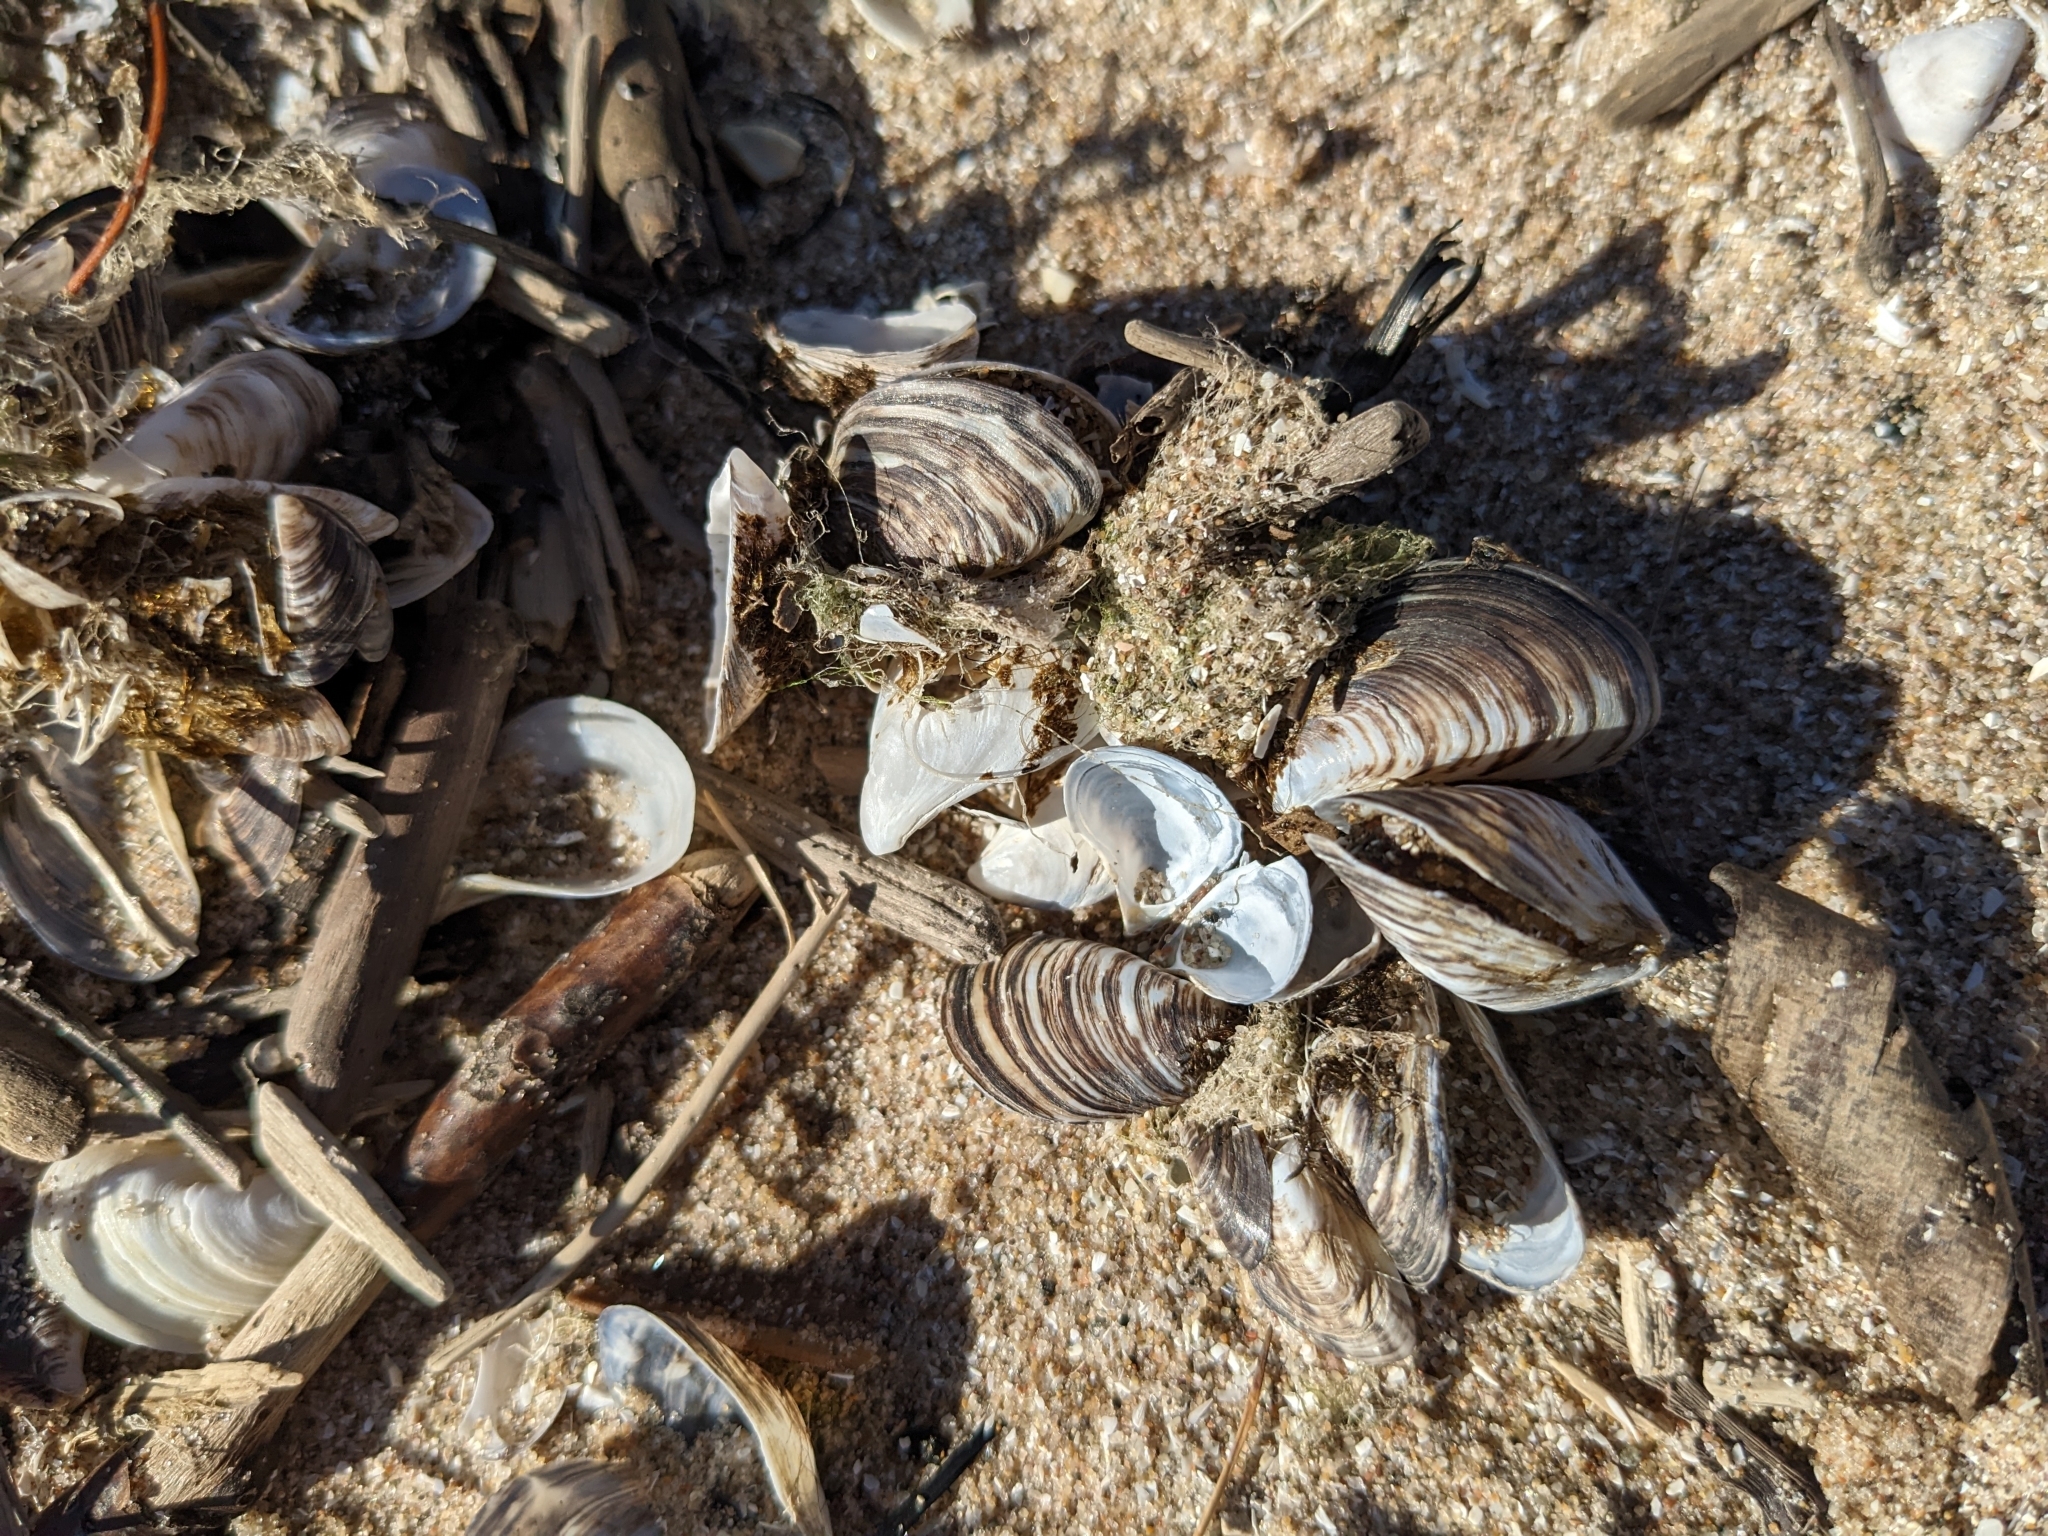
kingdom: Animalia
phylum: Mollusca
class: Bivalvia
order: Myida
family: Dreissenidae
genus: Dreissena
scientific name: Dreissena polymorpha
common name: Zebra mussel
